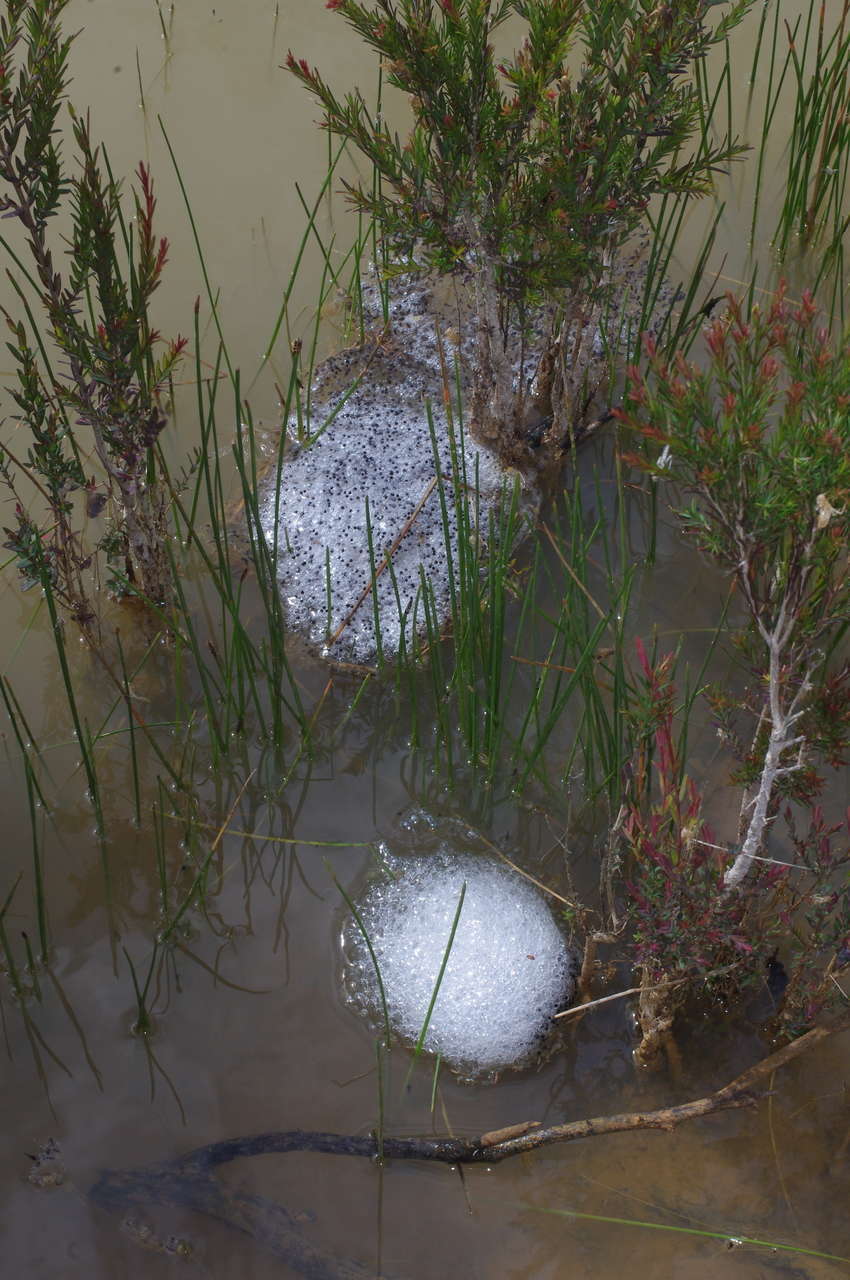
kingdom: Animalia
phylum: Chordata
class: Amphibia
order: Anura
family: Limnodynastidae
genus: Limnodynastes
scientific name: Limnodynastes dumerilii
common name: Banjo frog
